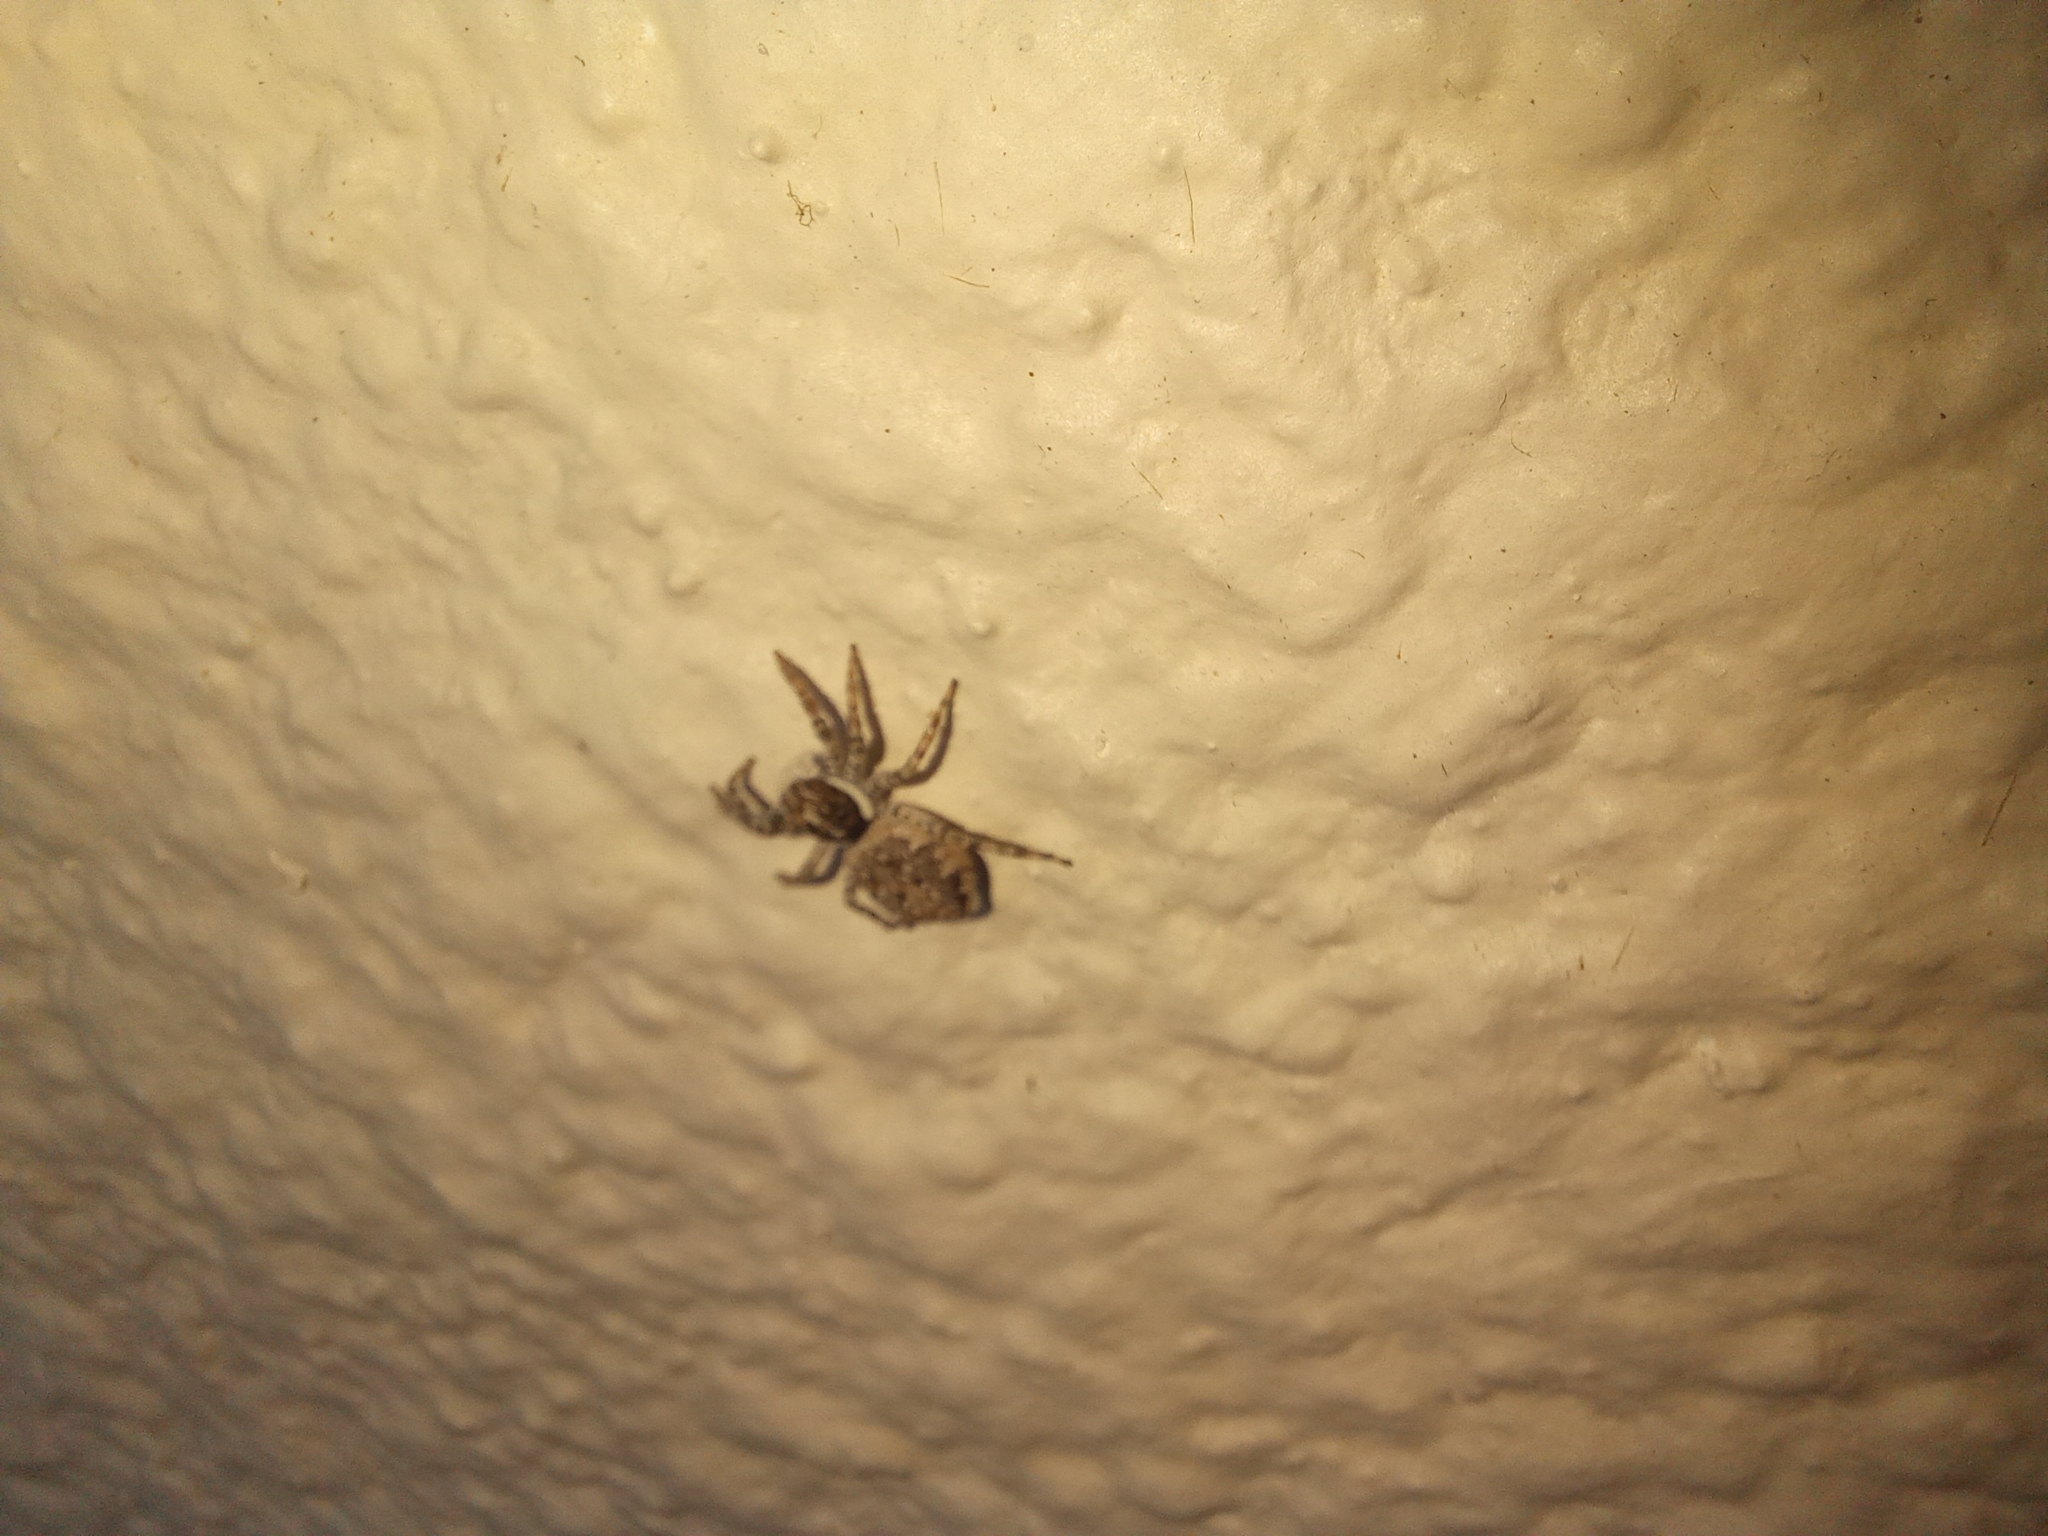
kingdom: Animalia
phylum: Arthropoda
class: Arachnida
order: Araneae
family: Salticidae
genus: Menemerus
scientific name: Menemerus semilimbatus
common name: Jumping spider
